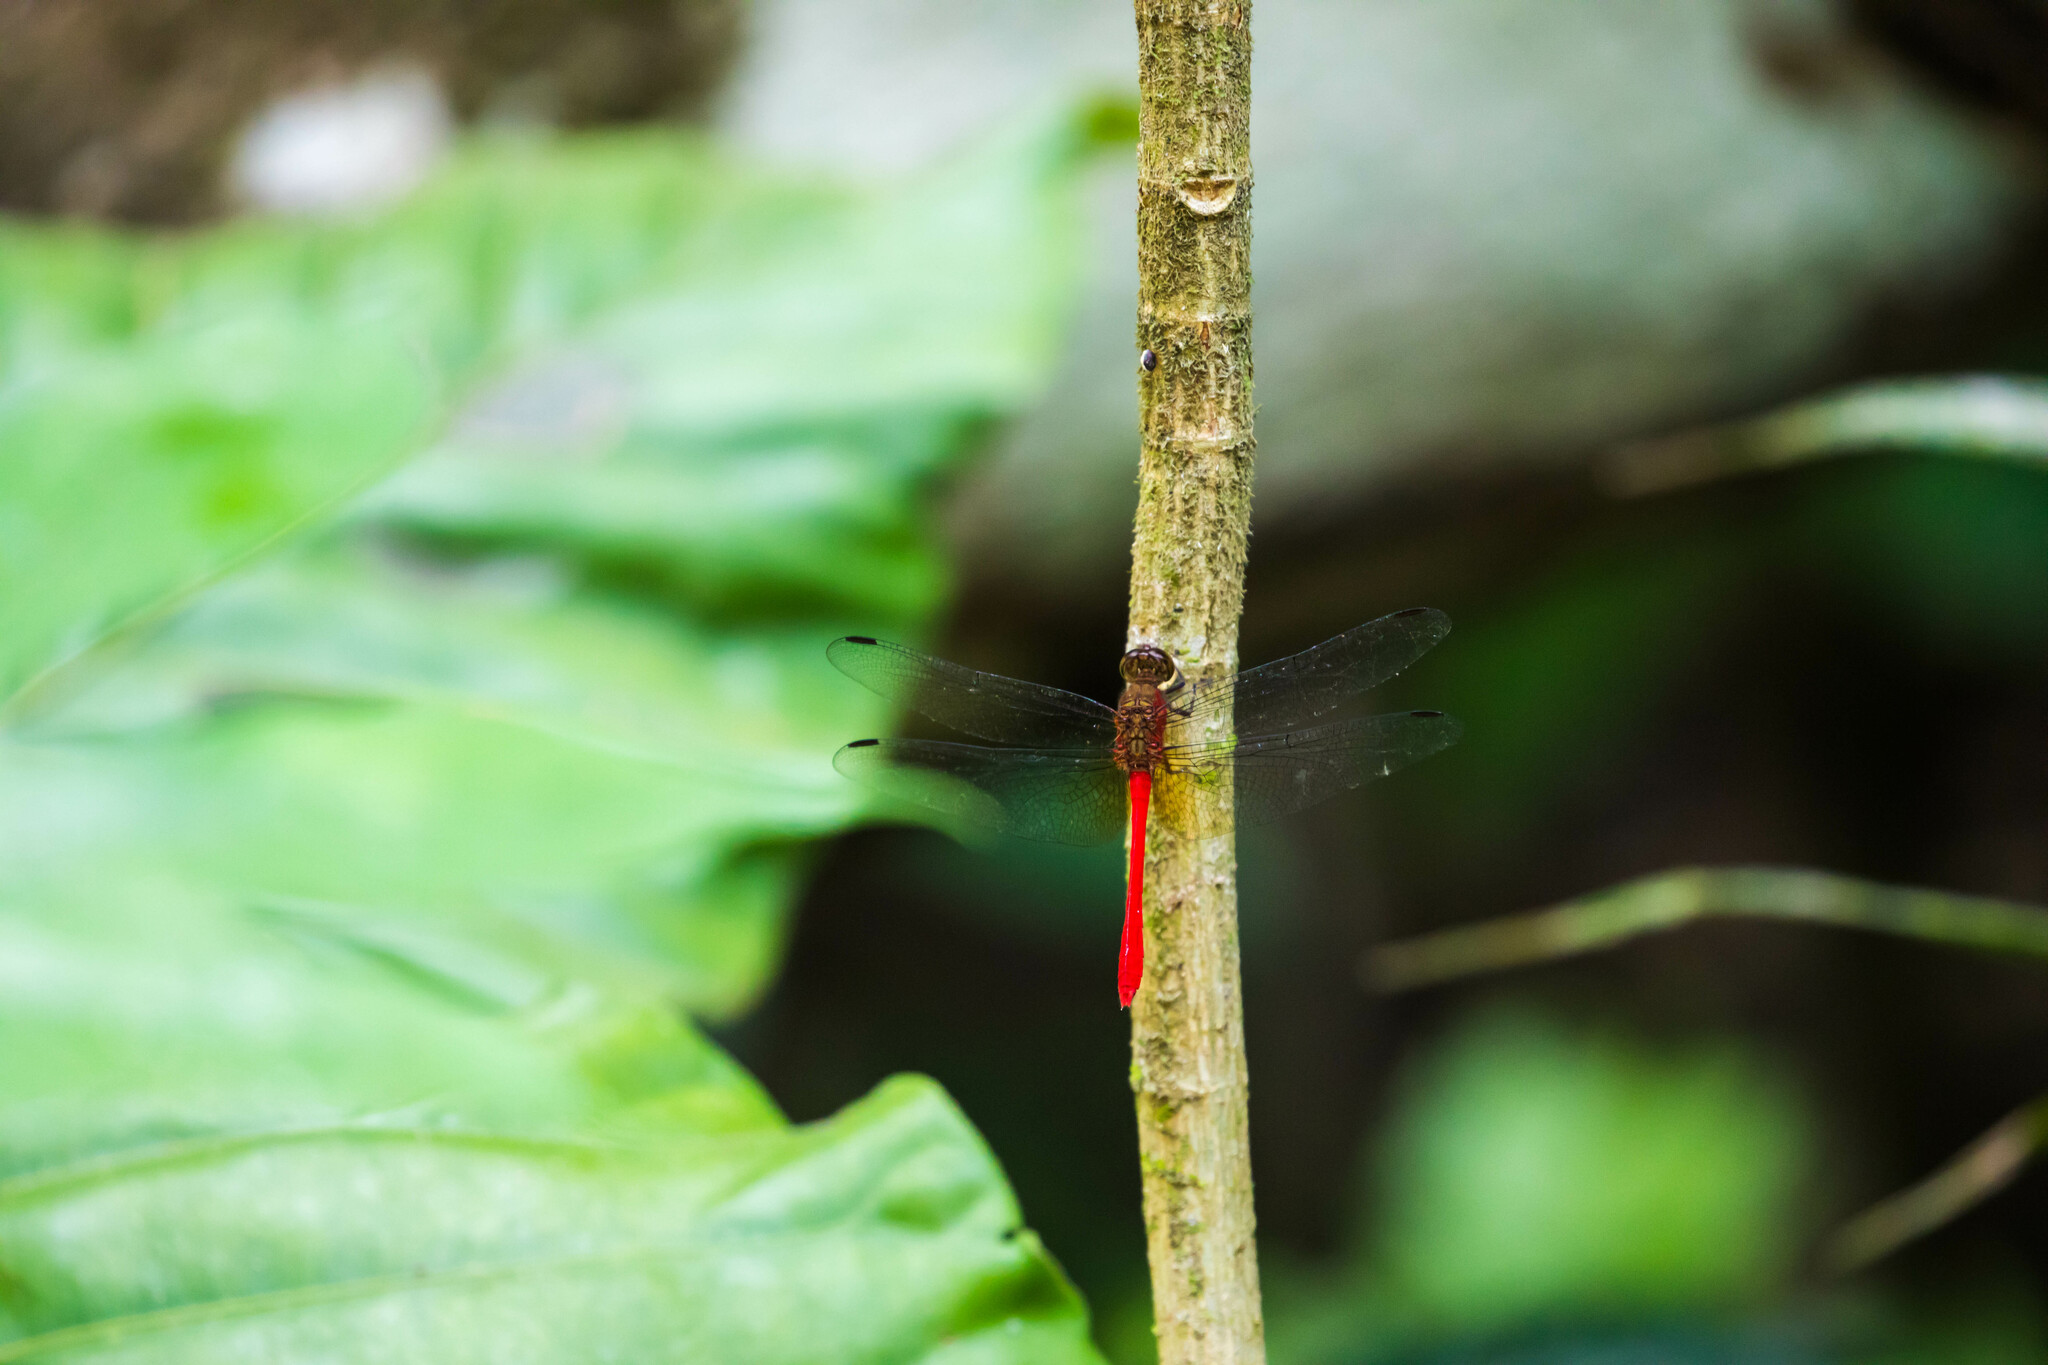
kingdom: Animalia
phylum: Arthropoda
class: Insecta
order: Odonata
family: Libellulidae
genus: Rhodopygia
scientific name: Rhodopygia hinei
